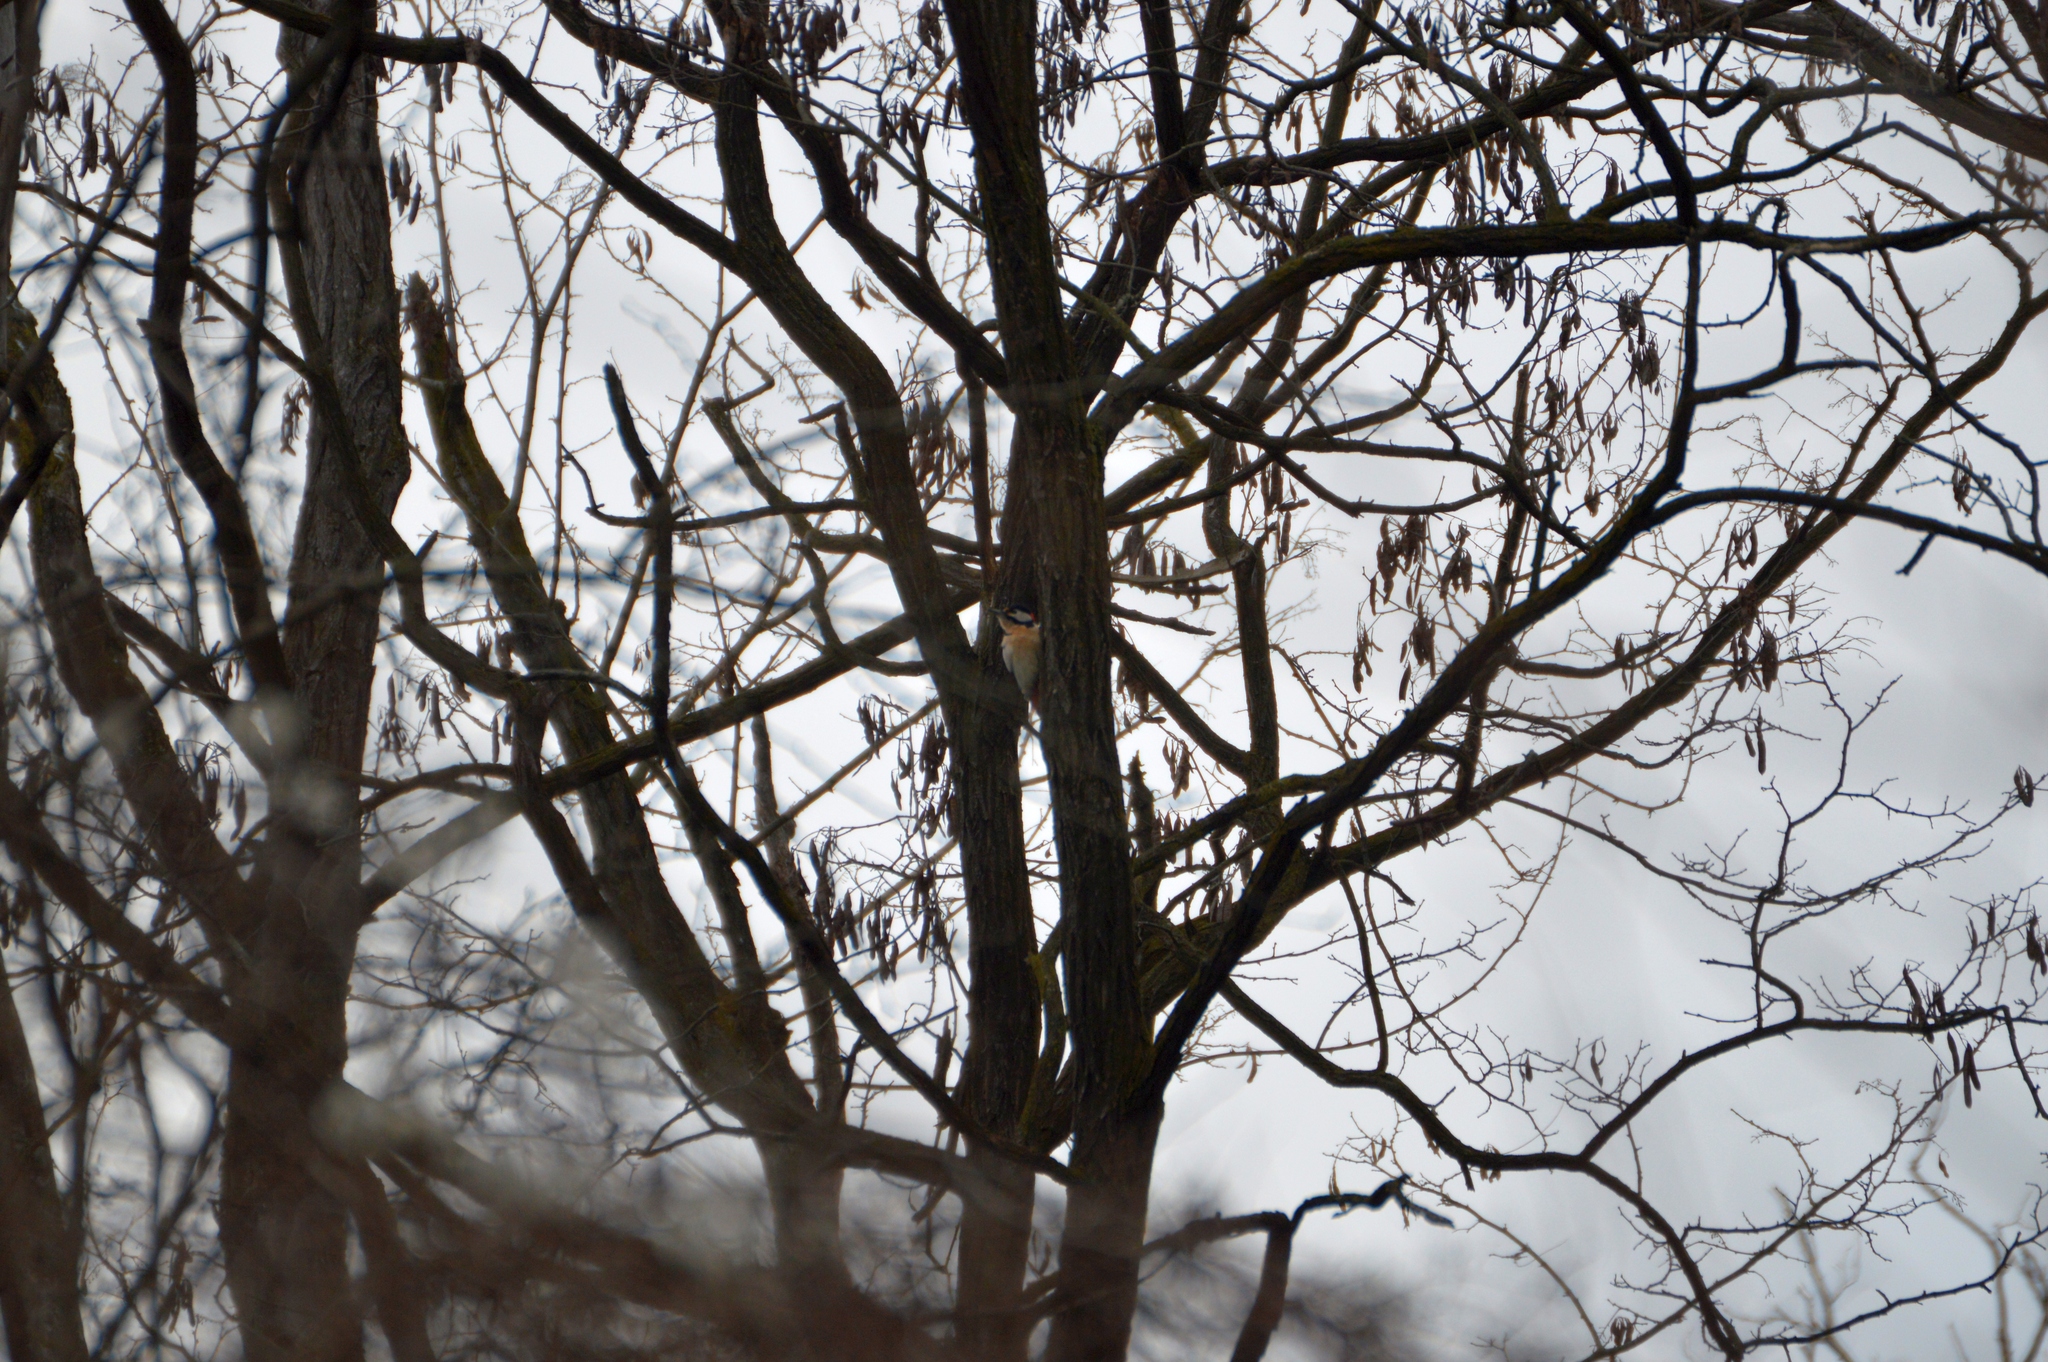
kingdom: Animalia
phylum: Chordata
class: Aves
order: Piciformes
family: Picidae
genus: Dendrocopos
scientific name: Dendrocopos major
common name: Great spotted woodpecker
